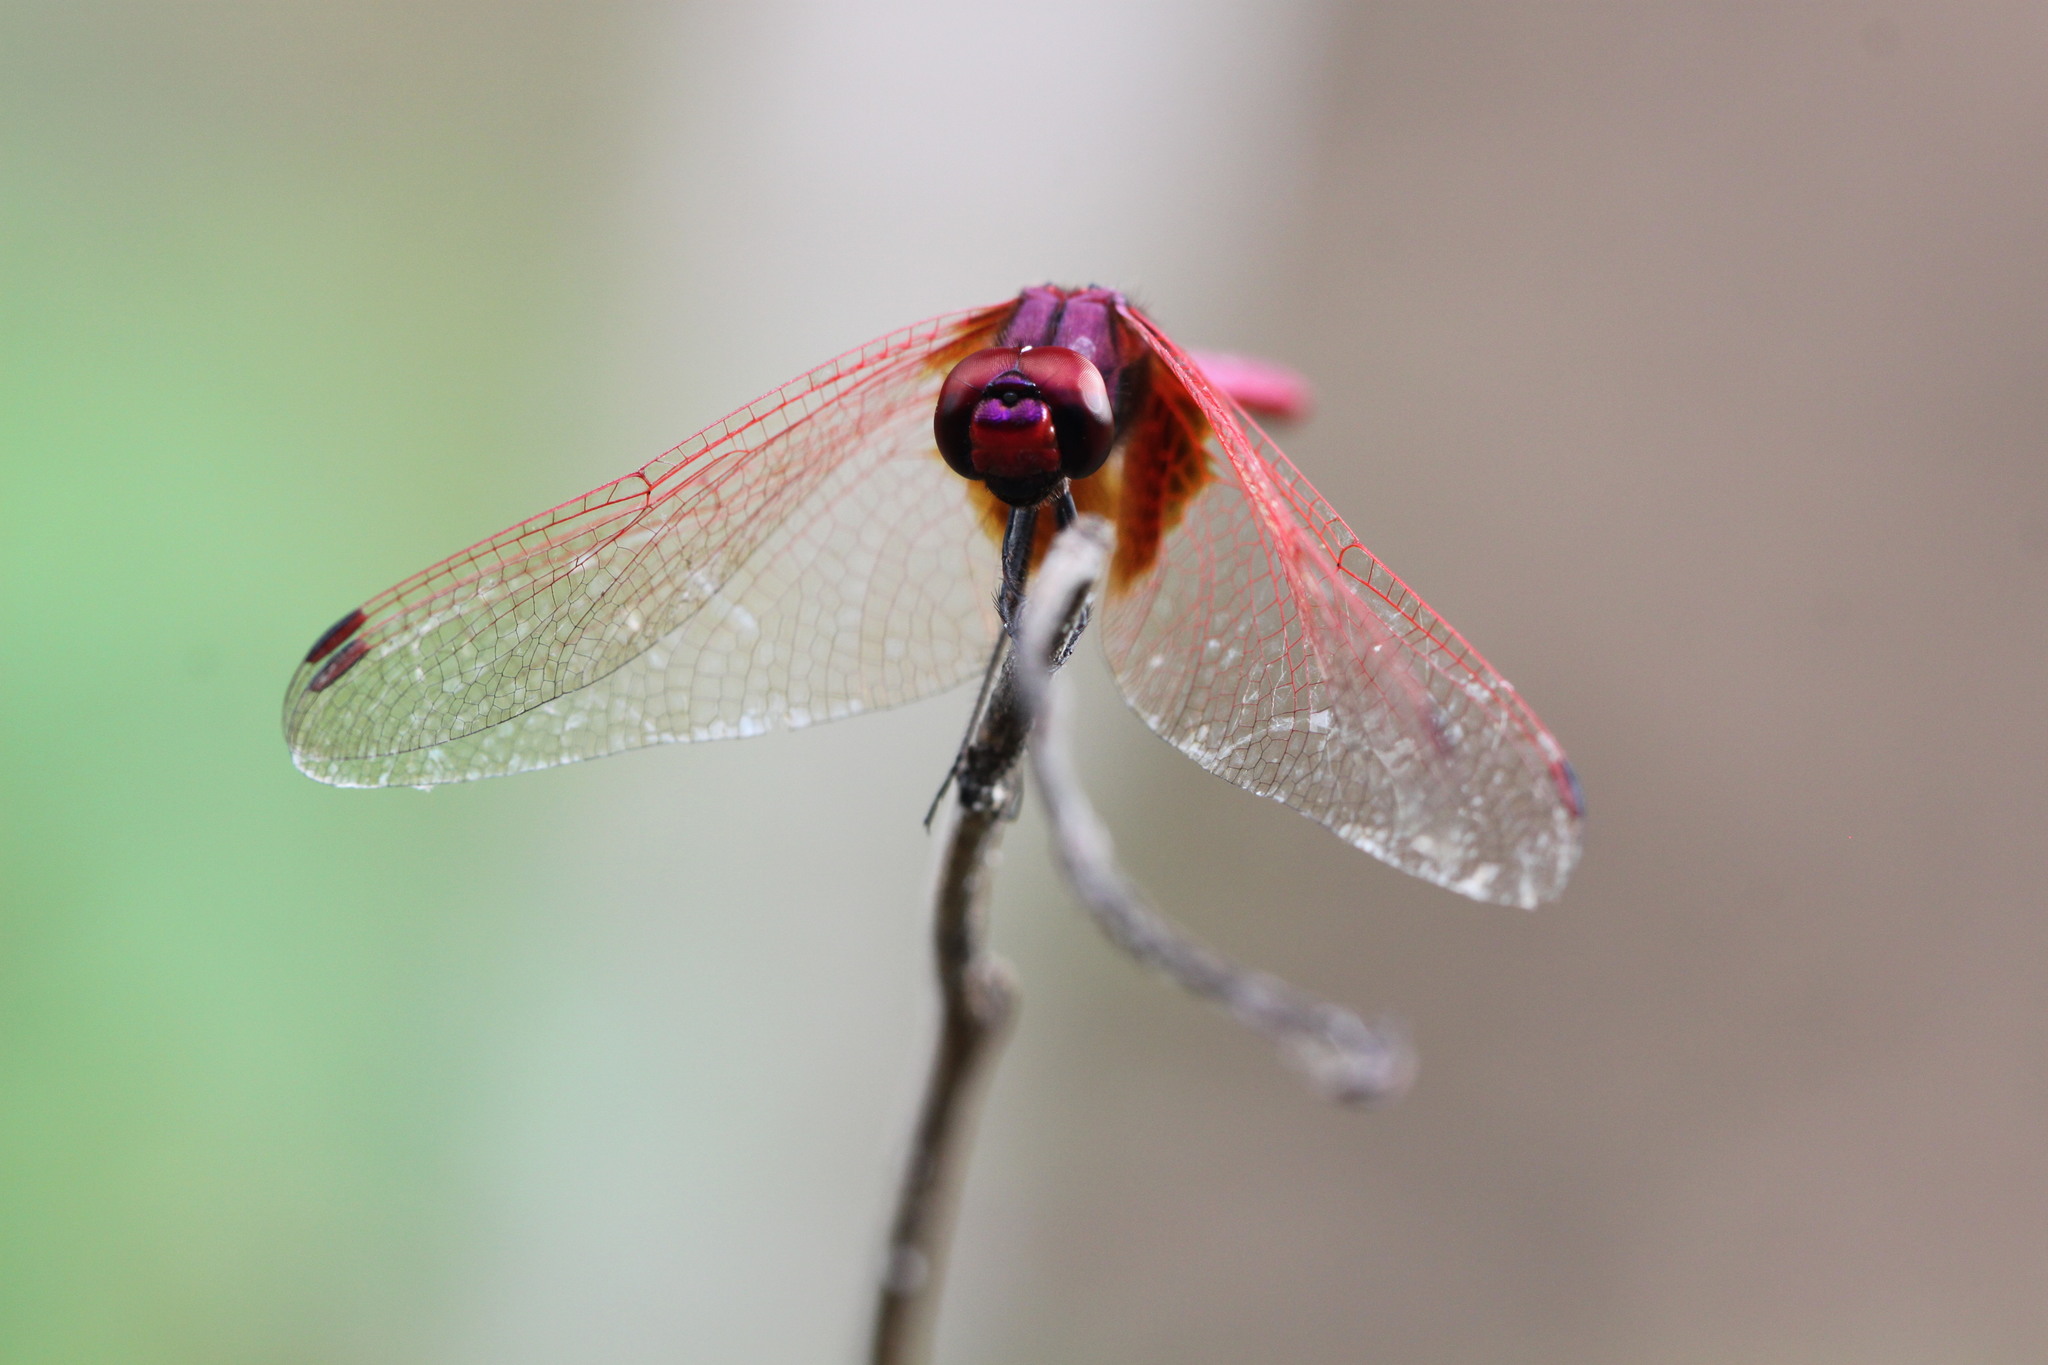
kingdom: Animalia
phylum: Arthropoda
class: Insecta
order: Odonata
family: Libellulidae
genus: Trithemis
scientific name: Trithemis aurora
